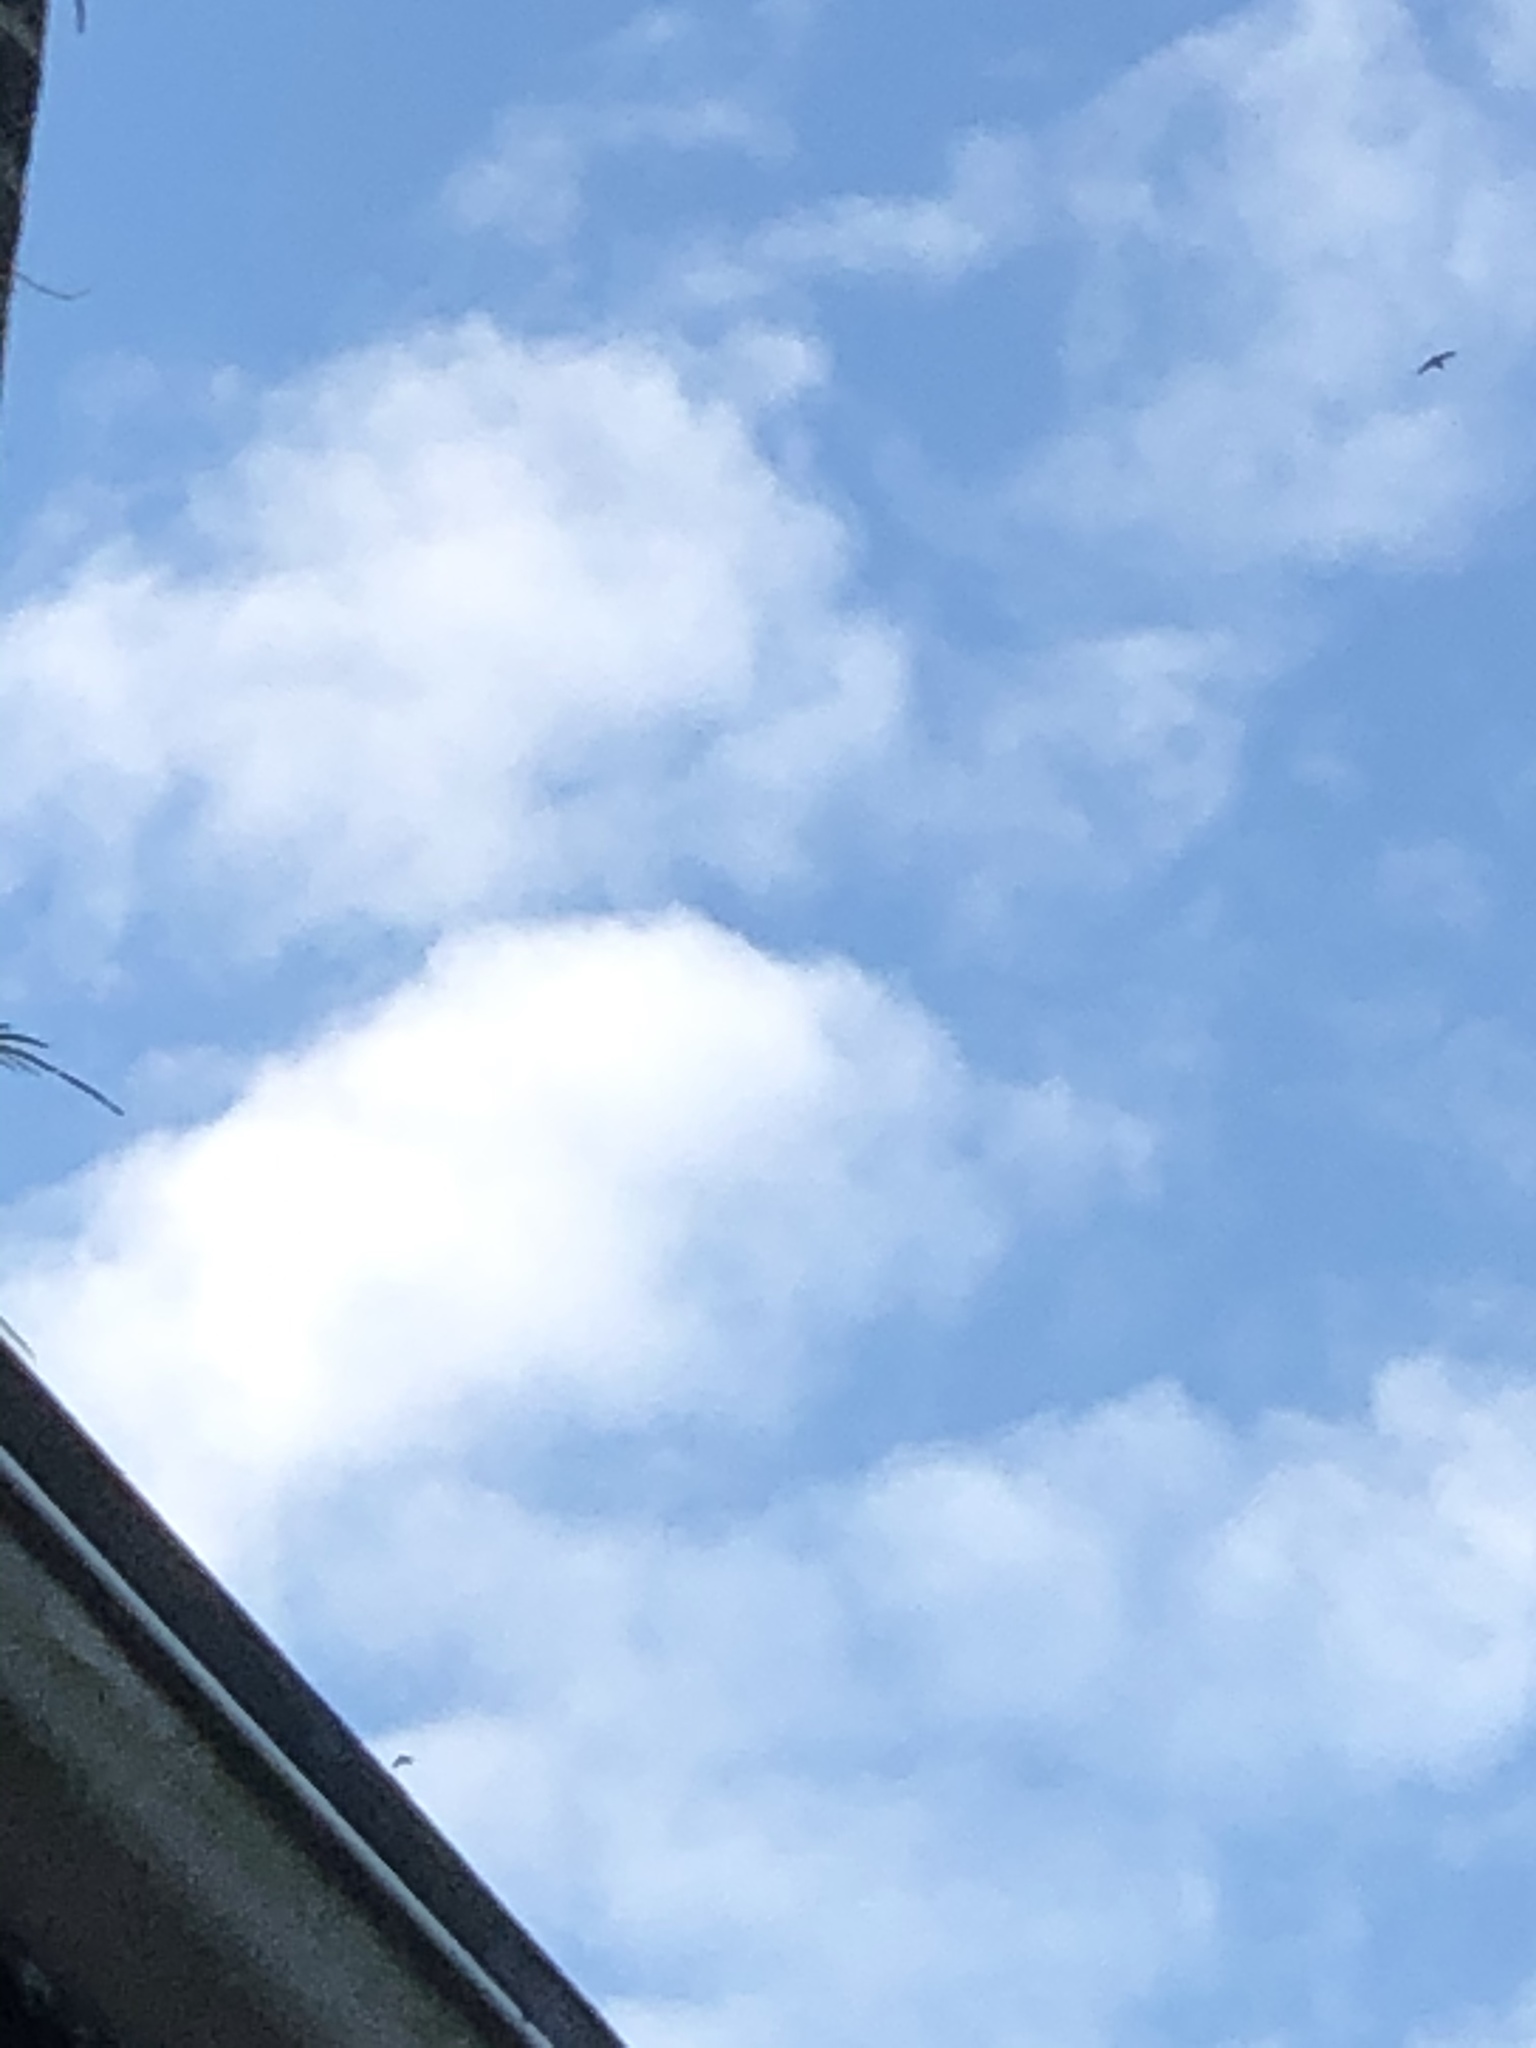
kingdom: Animalia
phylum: Chordata
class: Aves
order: Apodiformes
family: Apodidae
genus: Chaetura
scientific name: Chaetura pelagica
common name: Chimney swift
